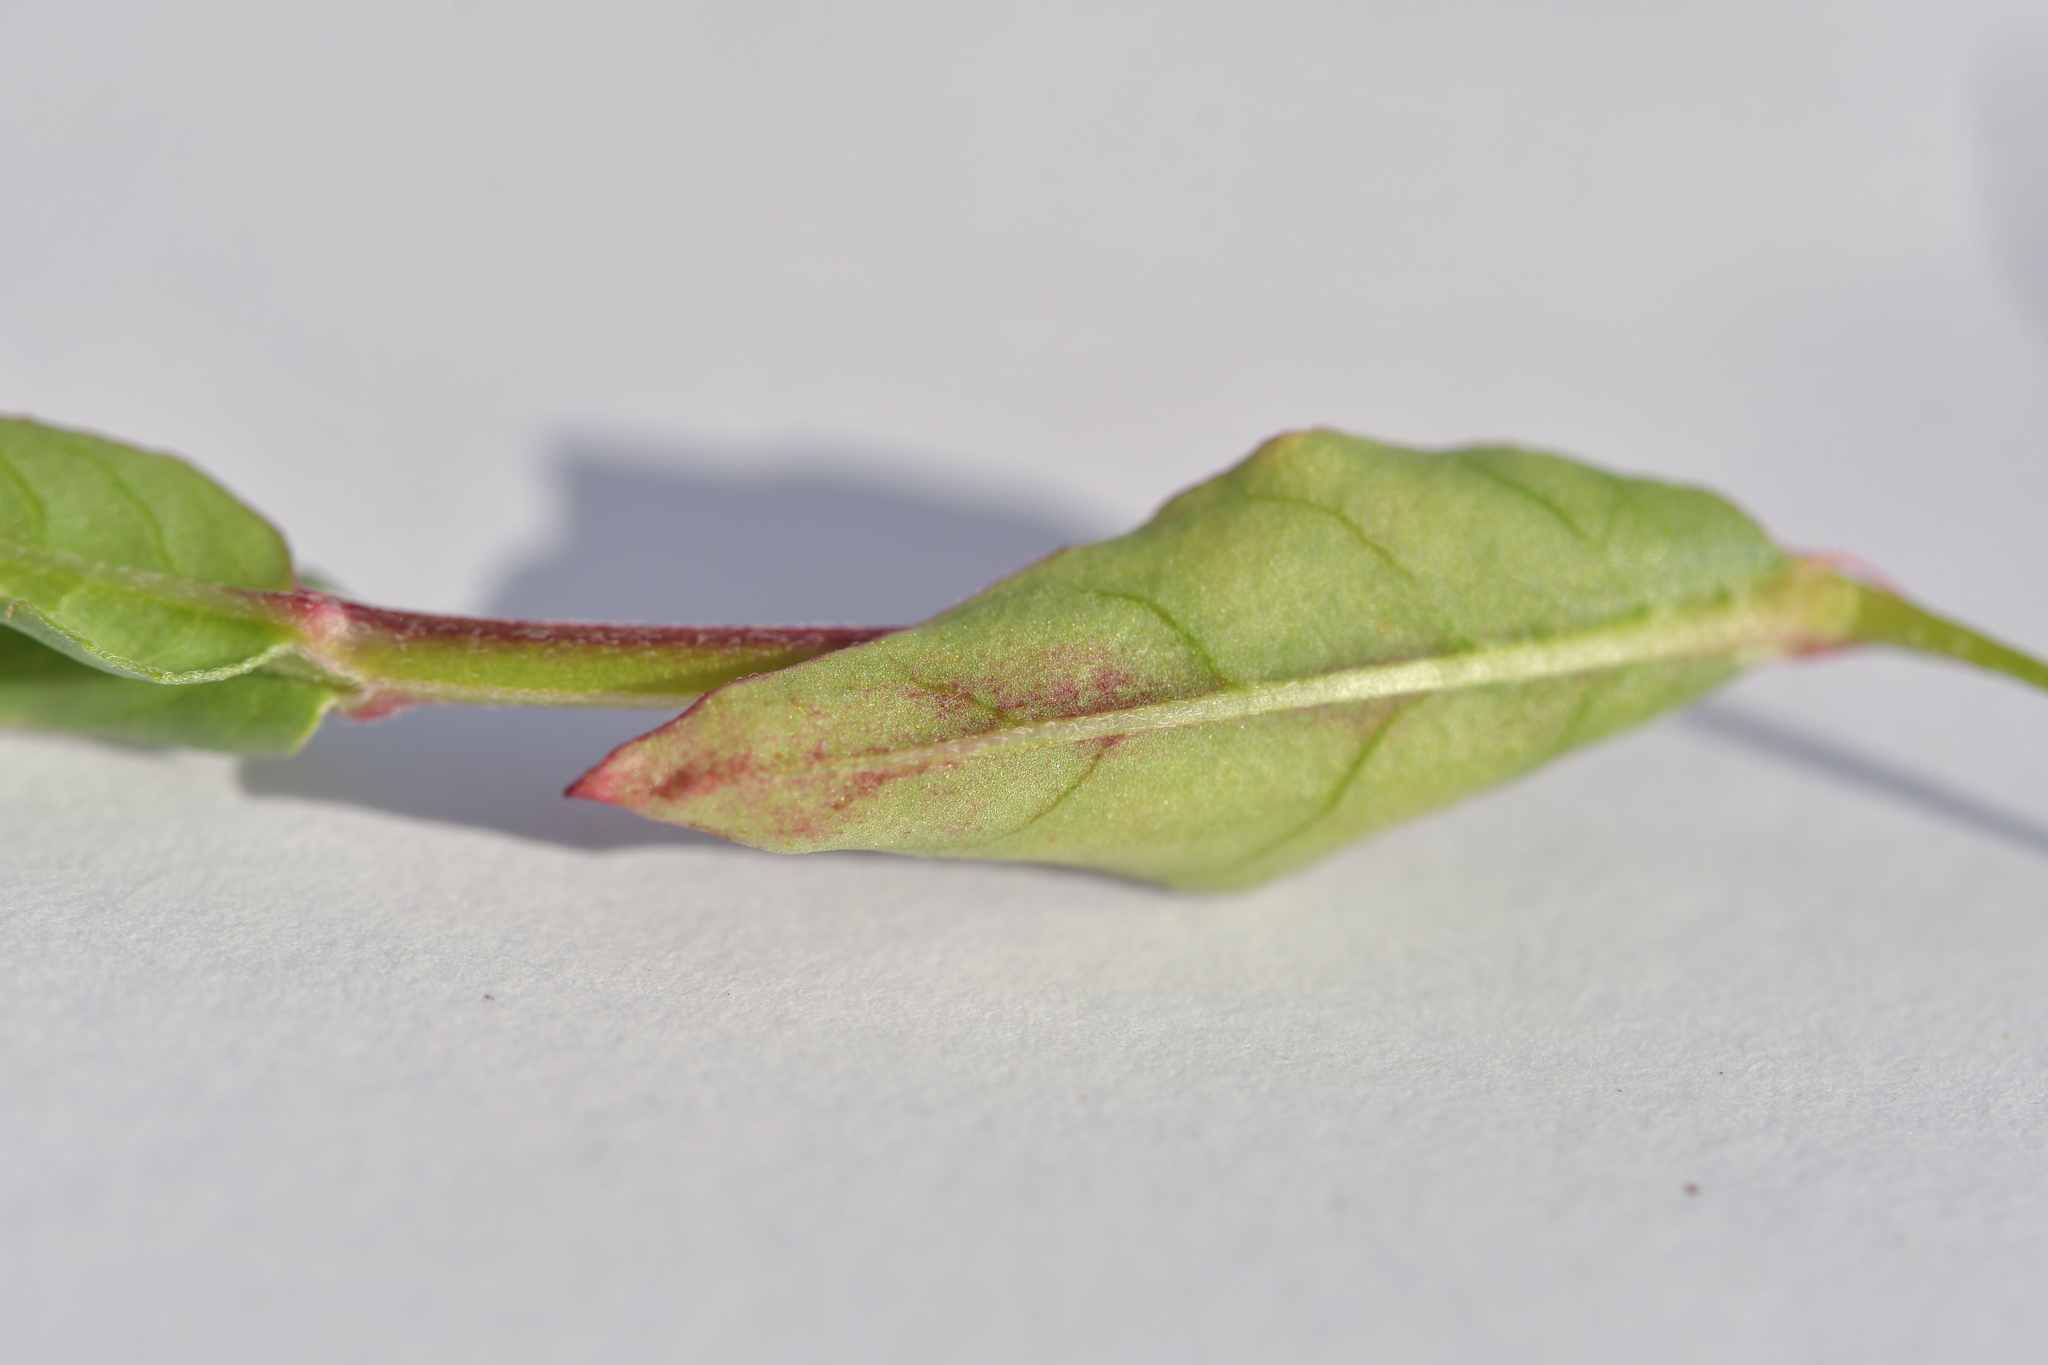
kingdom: Plantae
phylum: Tracheophyta
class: Magnoliopsida
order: Myrtales
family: Onagraceae
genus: Epilobium
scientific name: Epilobium obscurum
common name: Short-fruited willowherb
